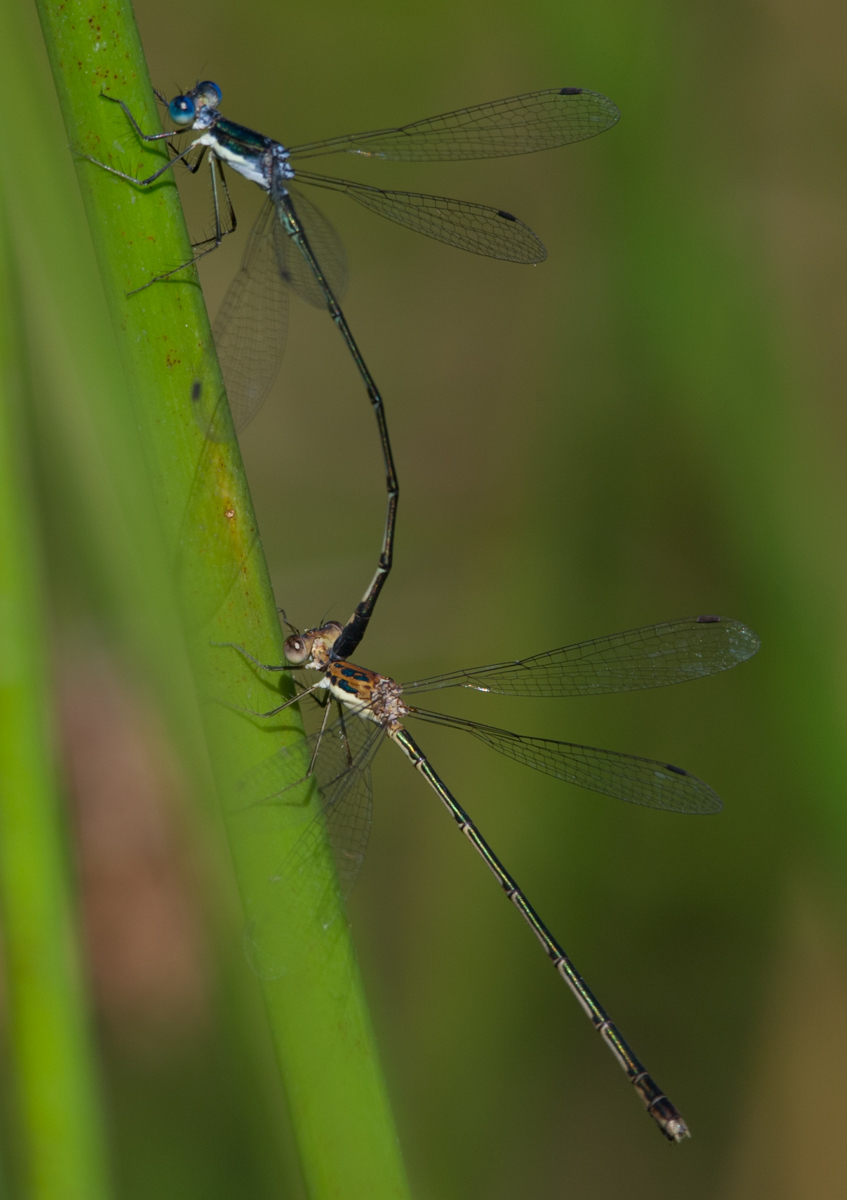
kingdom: Animalia
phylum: Arthropoda
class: Insecta
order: Odonata
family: Lestidae
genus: Lestes
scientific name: Lestes pinheyi
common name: Pinhey's spreadwing
